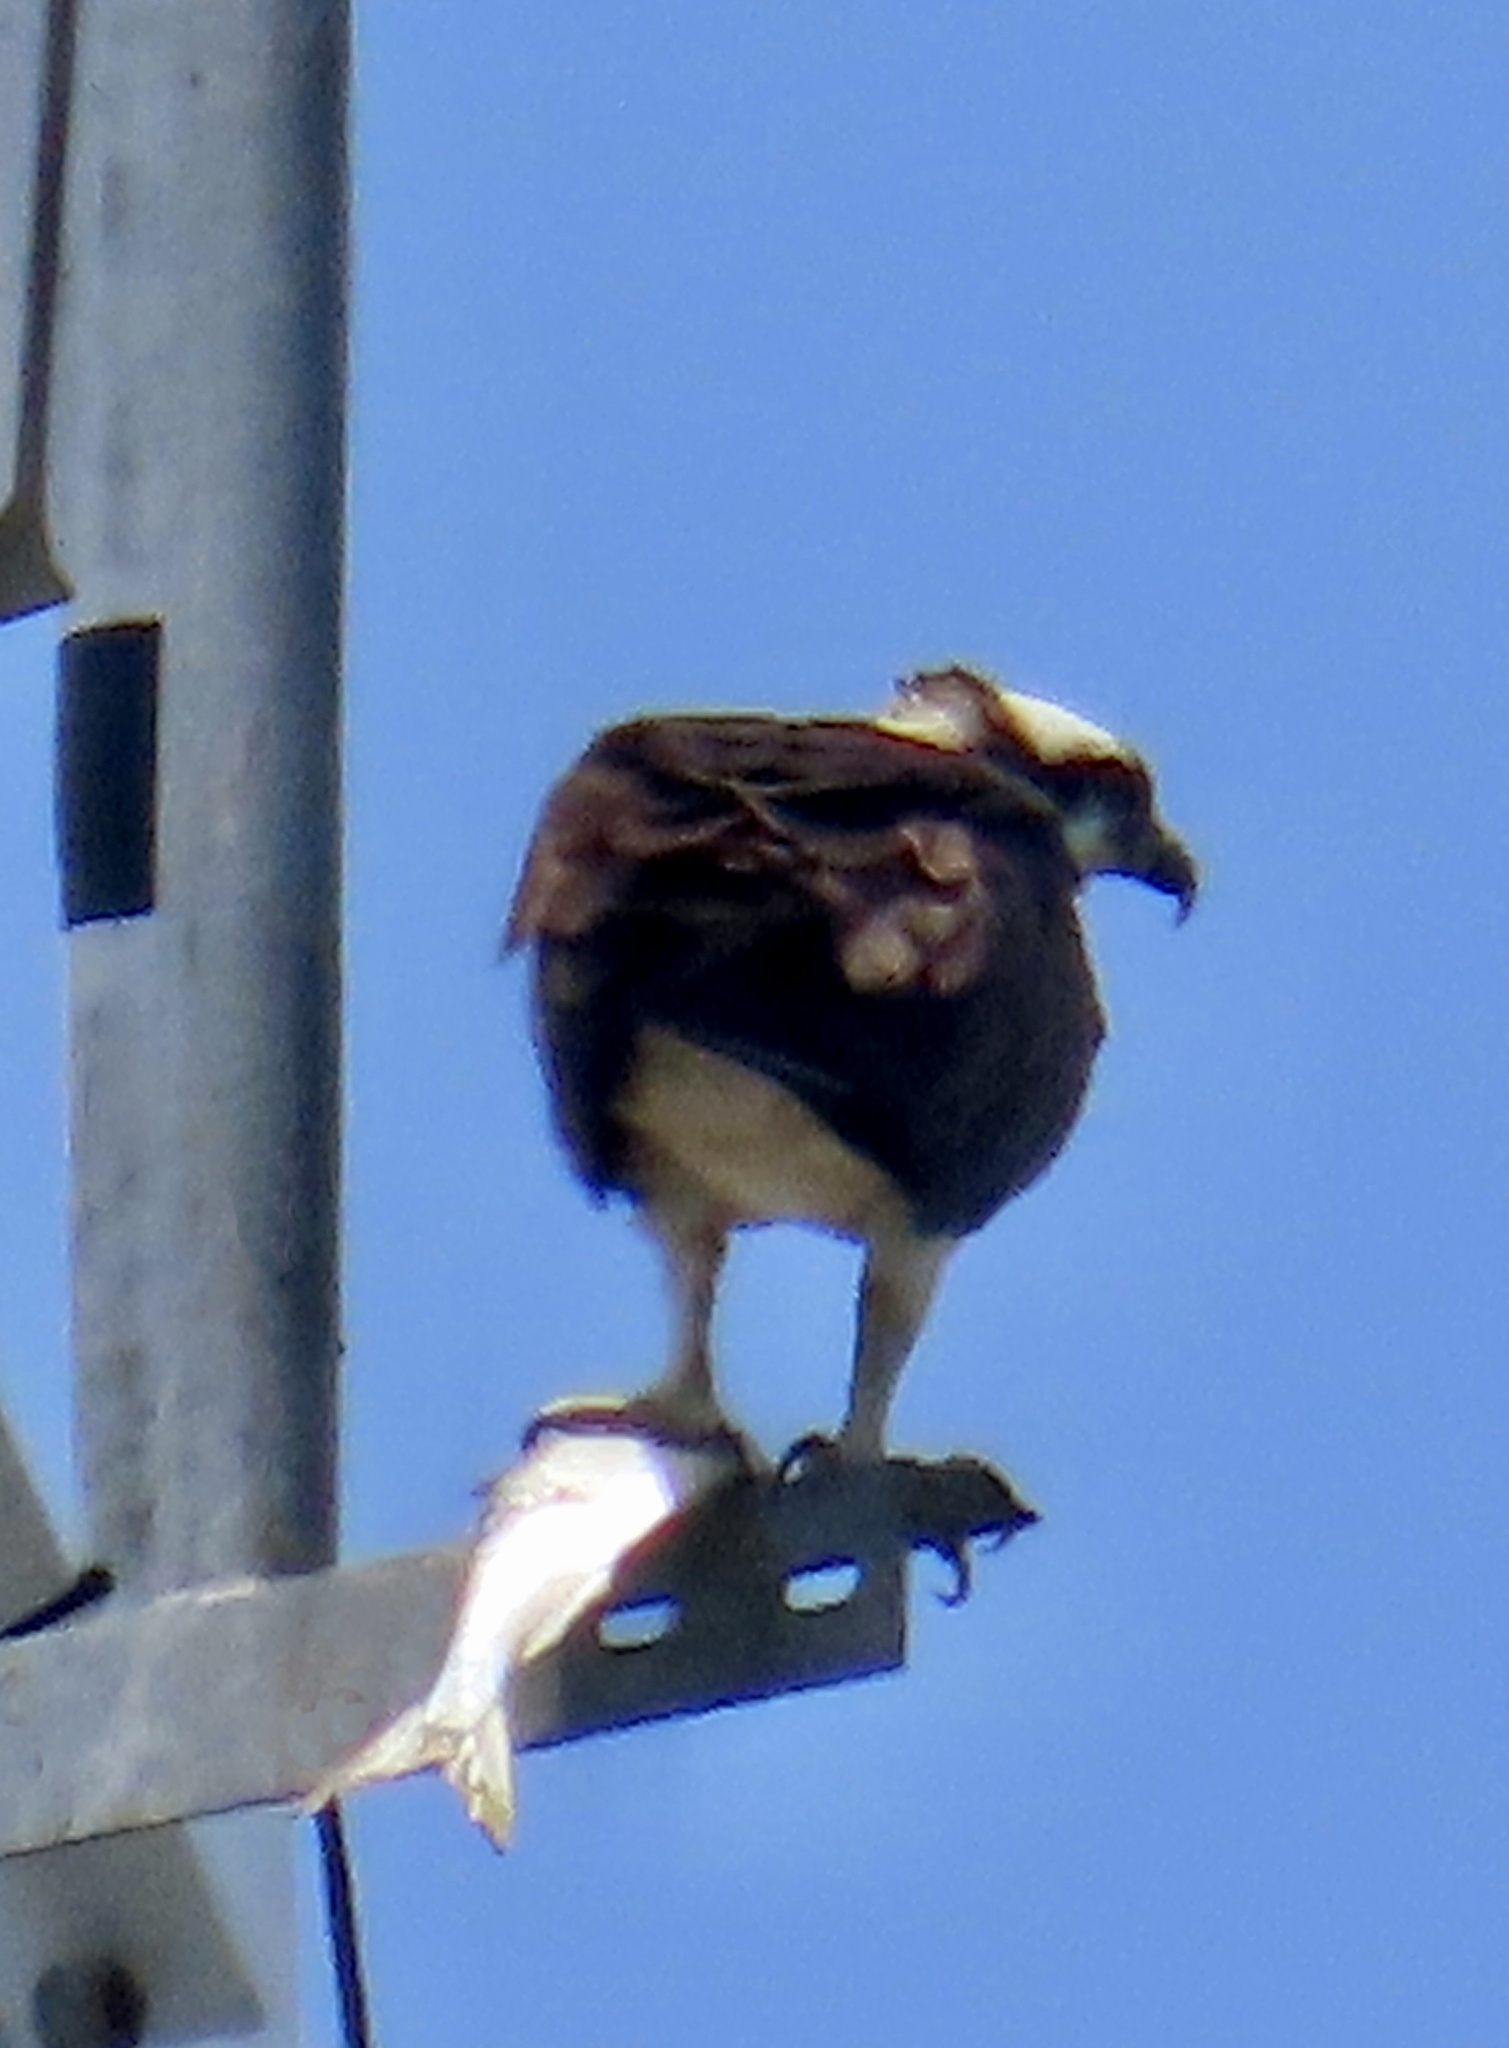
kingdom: Animalia
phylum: Chordata
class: Aves
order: Accipitriformes
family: Pandionidae
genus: Pandion
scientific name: Pandion haliaetus
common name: Osprey
